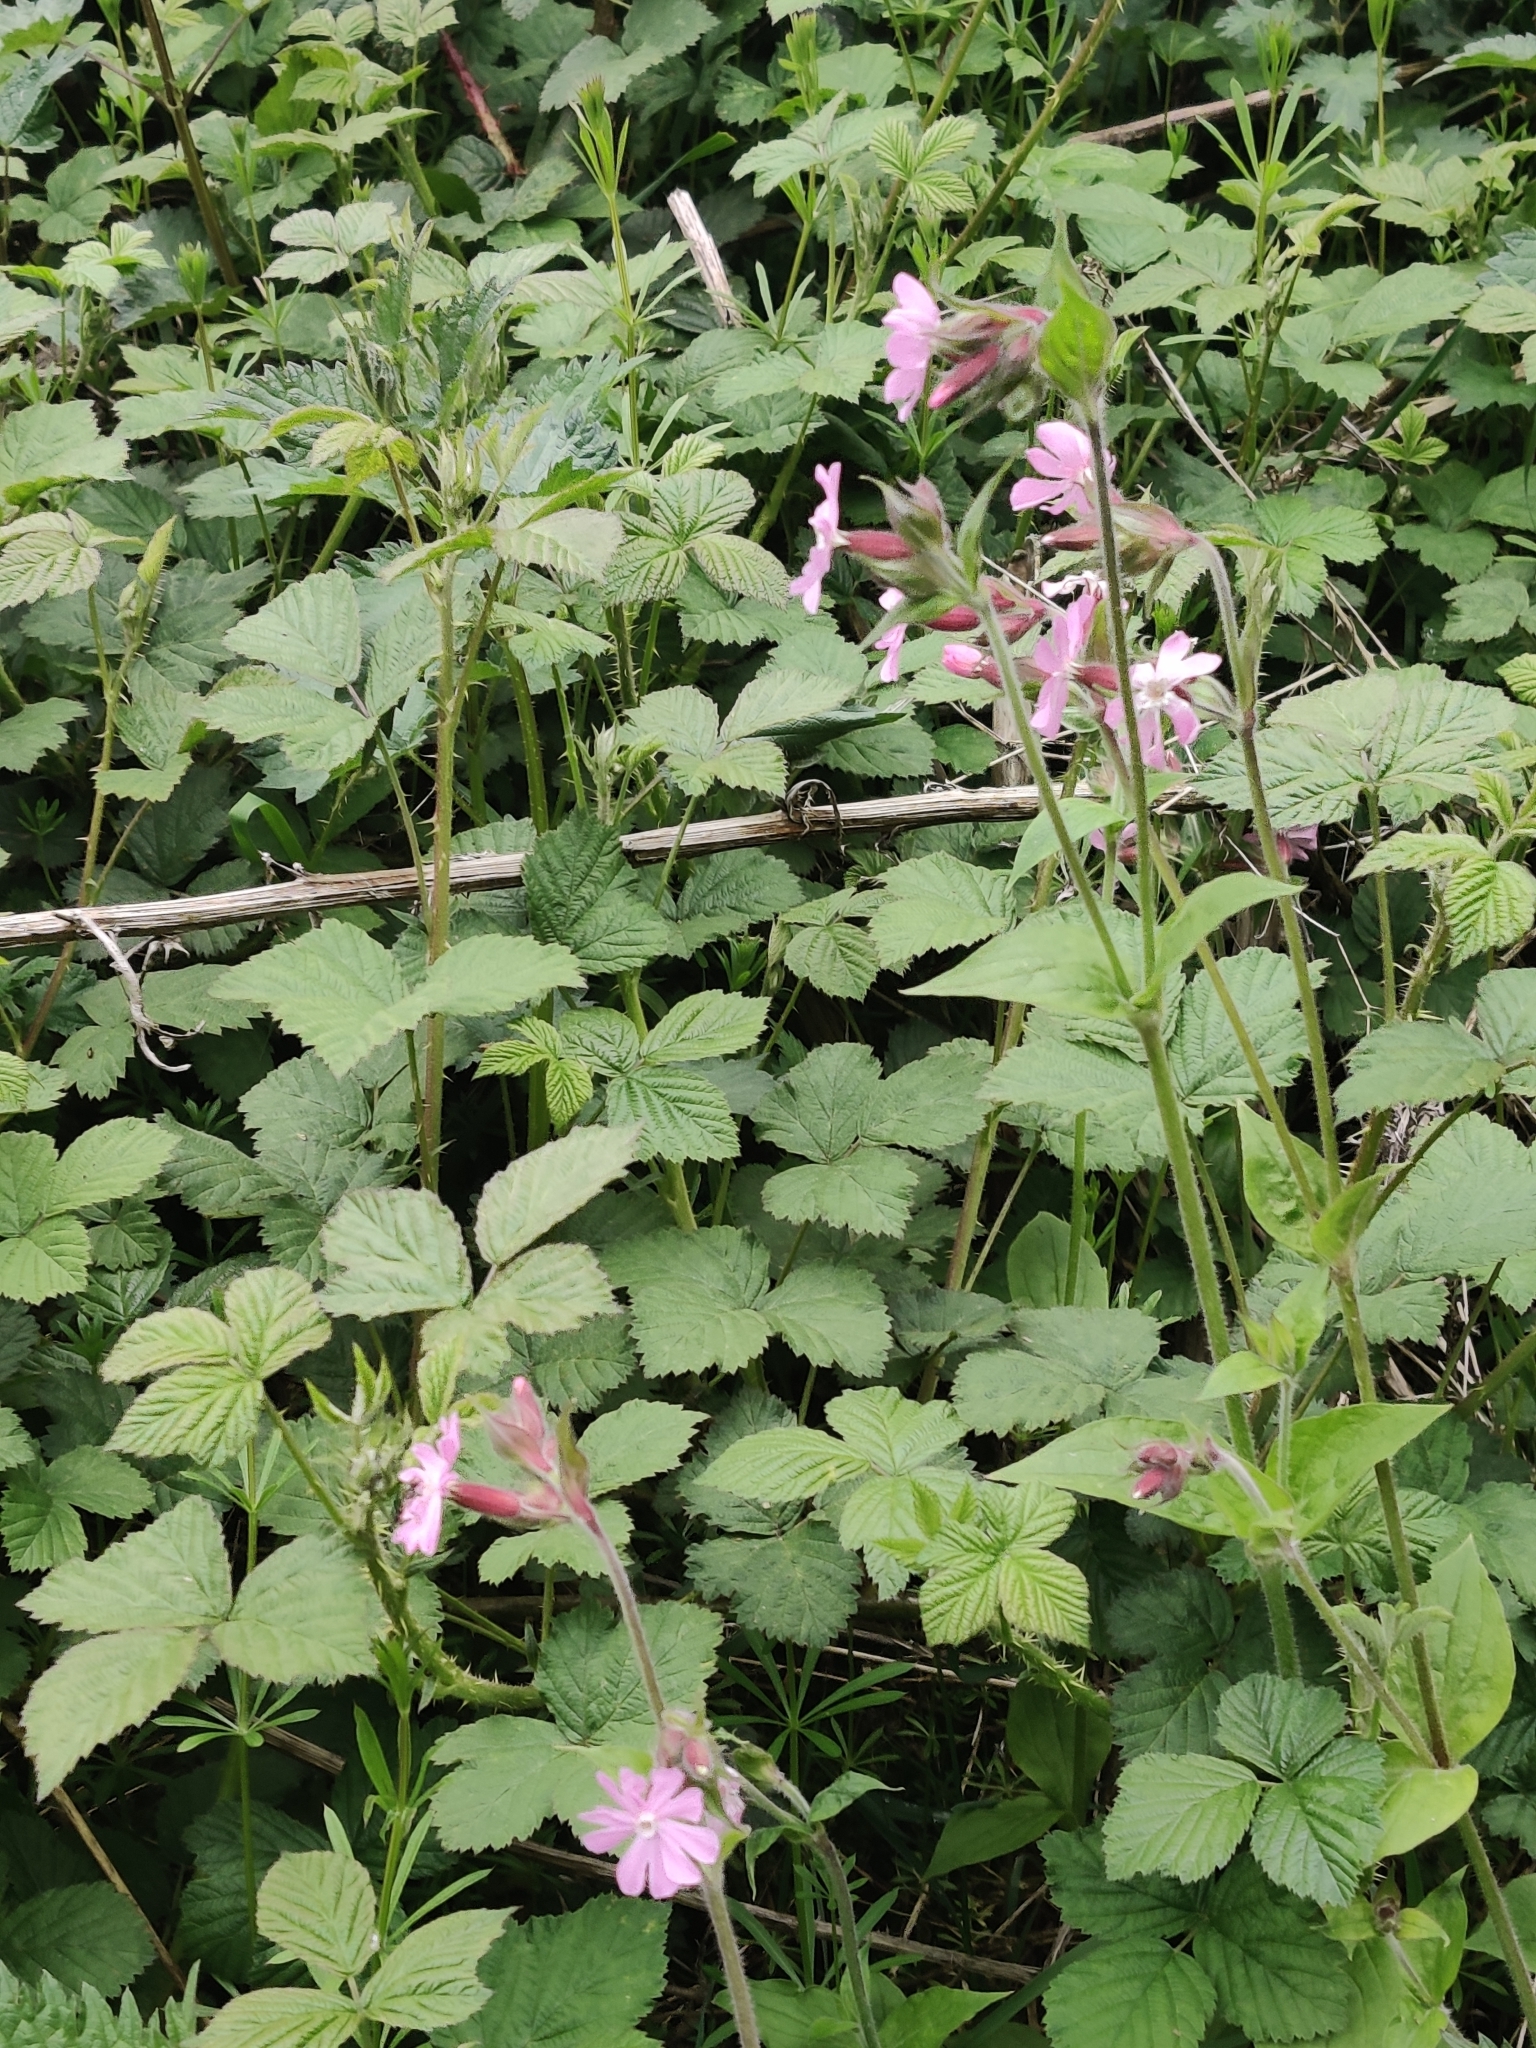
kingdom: Plantae
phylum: Tracheophyta
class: Magnoliopsida
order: Caryophyllales
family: Caryophyllaceae
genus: Silene
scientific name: Silene dioica
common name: Red campion
